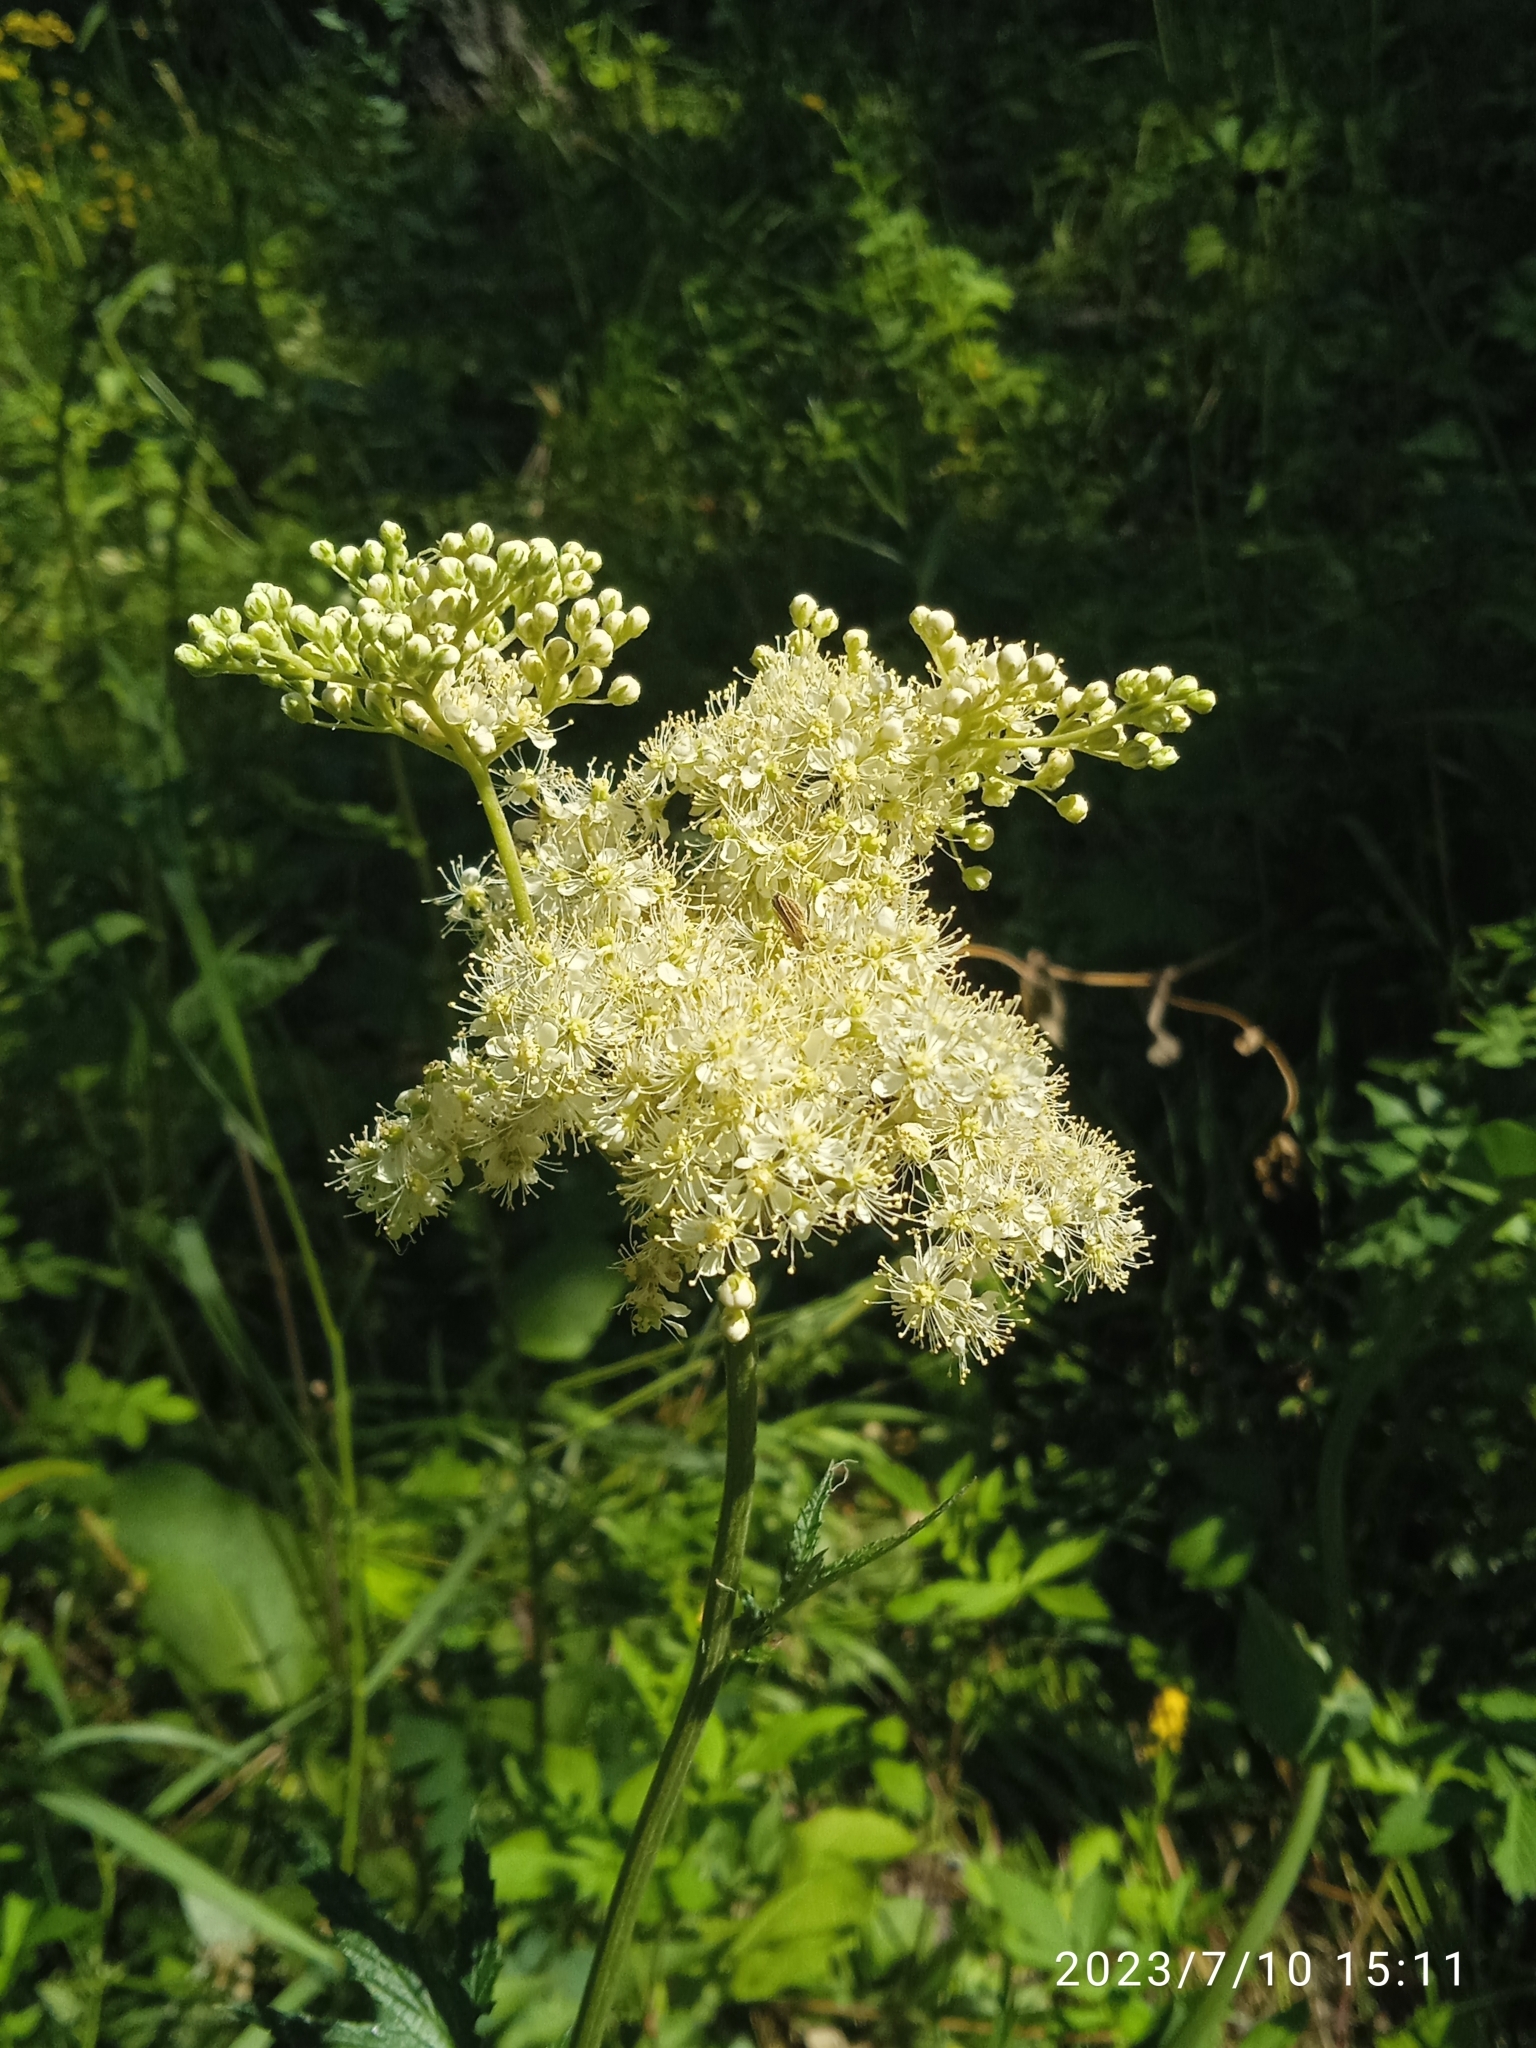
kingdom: Plantae
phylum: Tracheophyta
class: Magnoliopsida
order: Rosales
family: Rosaceae
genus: Filipendula
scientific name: Filipendula ulmaria
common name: Meadowsweet
